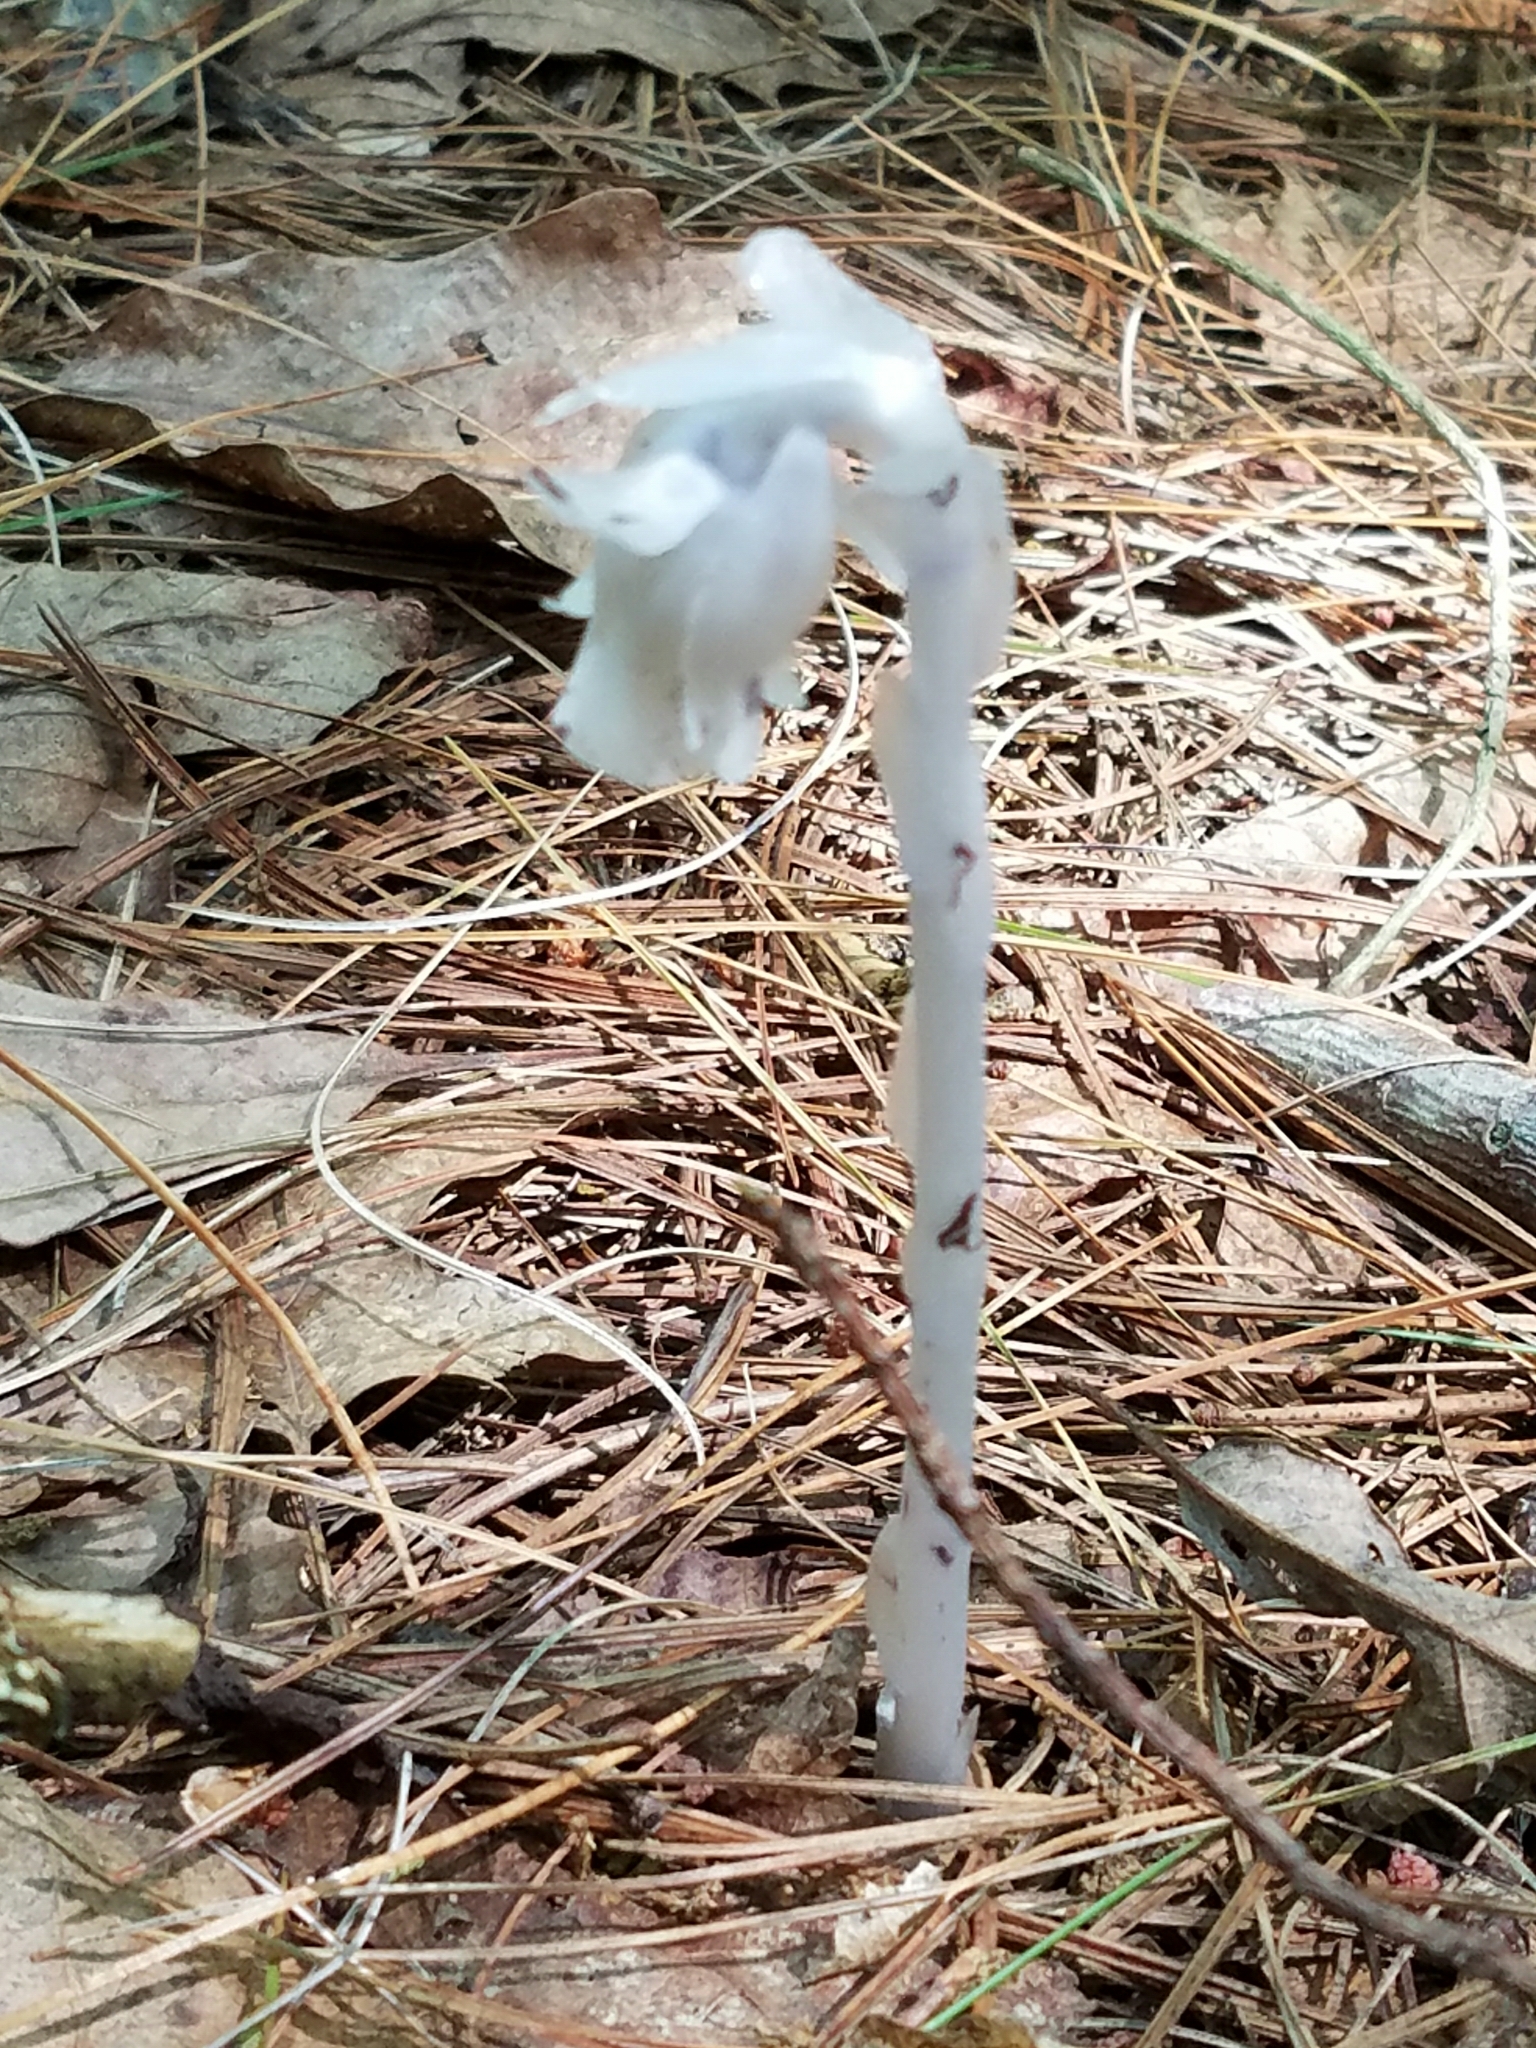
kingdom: Plantae
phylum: Tracheophyta
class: Magnoliopsida
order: Ericales
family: Ericaceae
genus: Monotropa
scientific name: Monotropa uniflora
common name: Convulsion root
